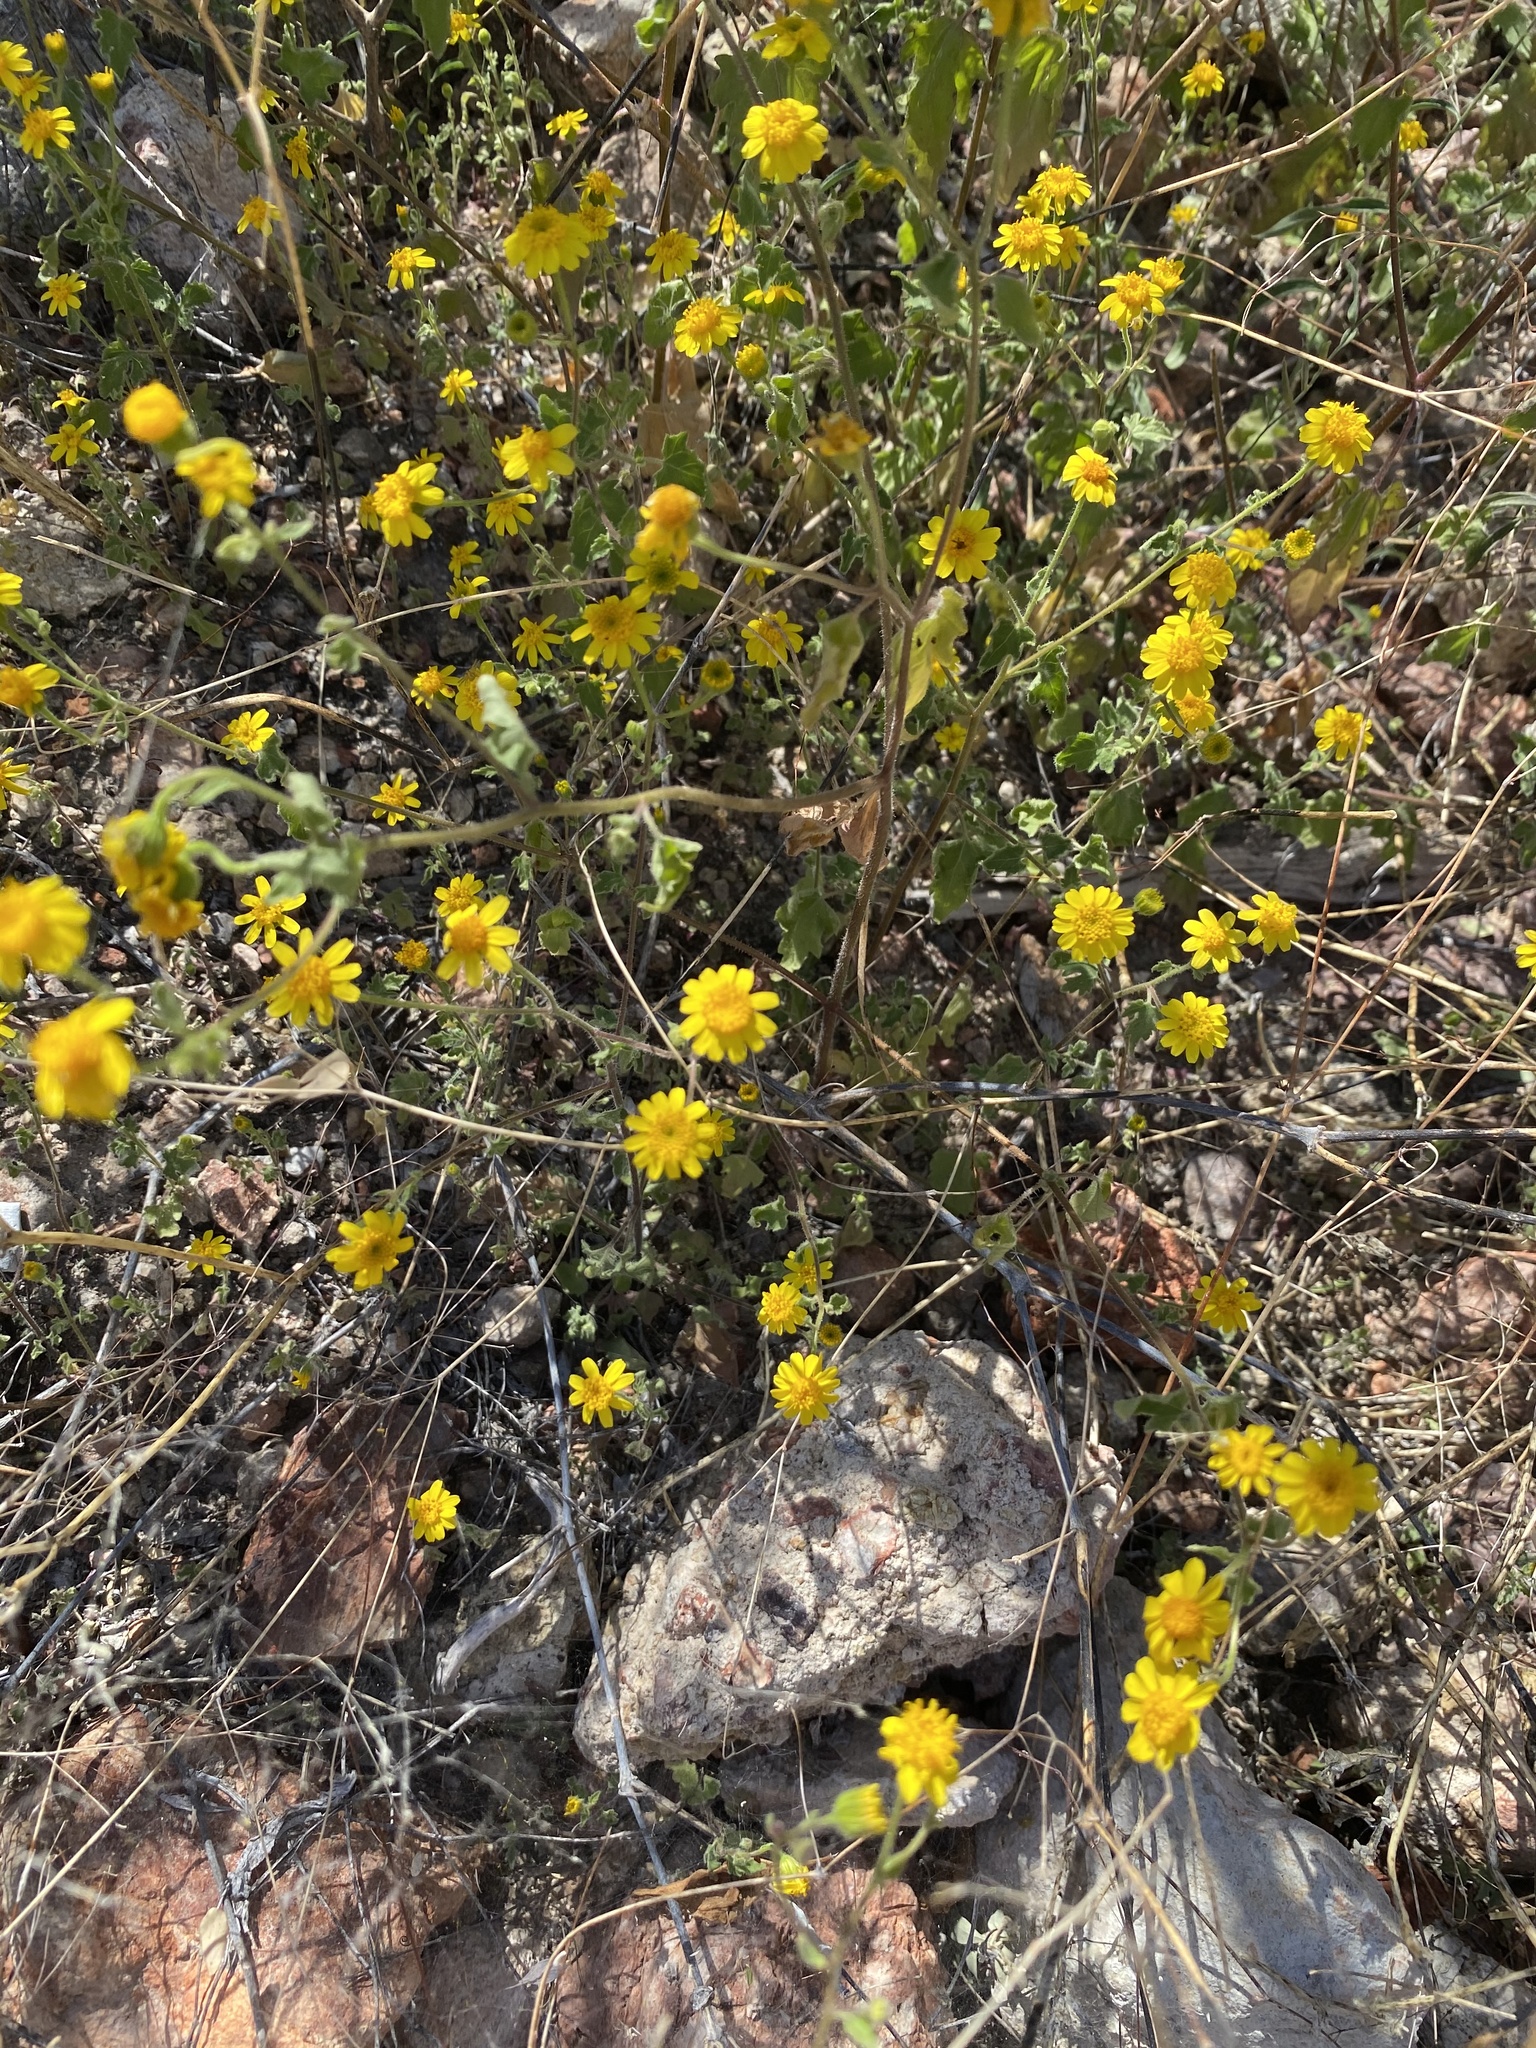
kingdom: Plantae
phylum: Tracheophyta
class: Magnoliopsida
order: Asterales
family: Asteraceae
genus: Perityle
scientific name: Perityle californica
